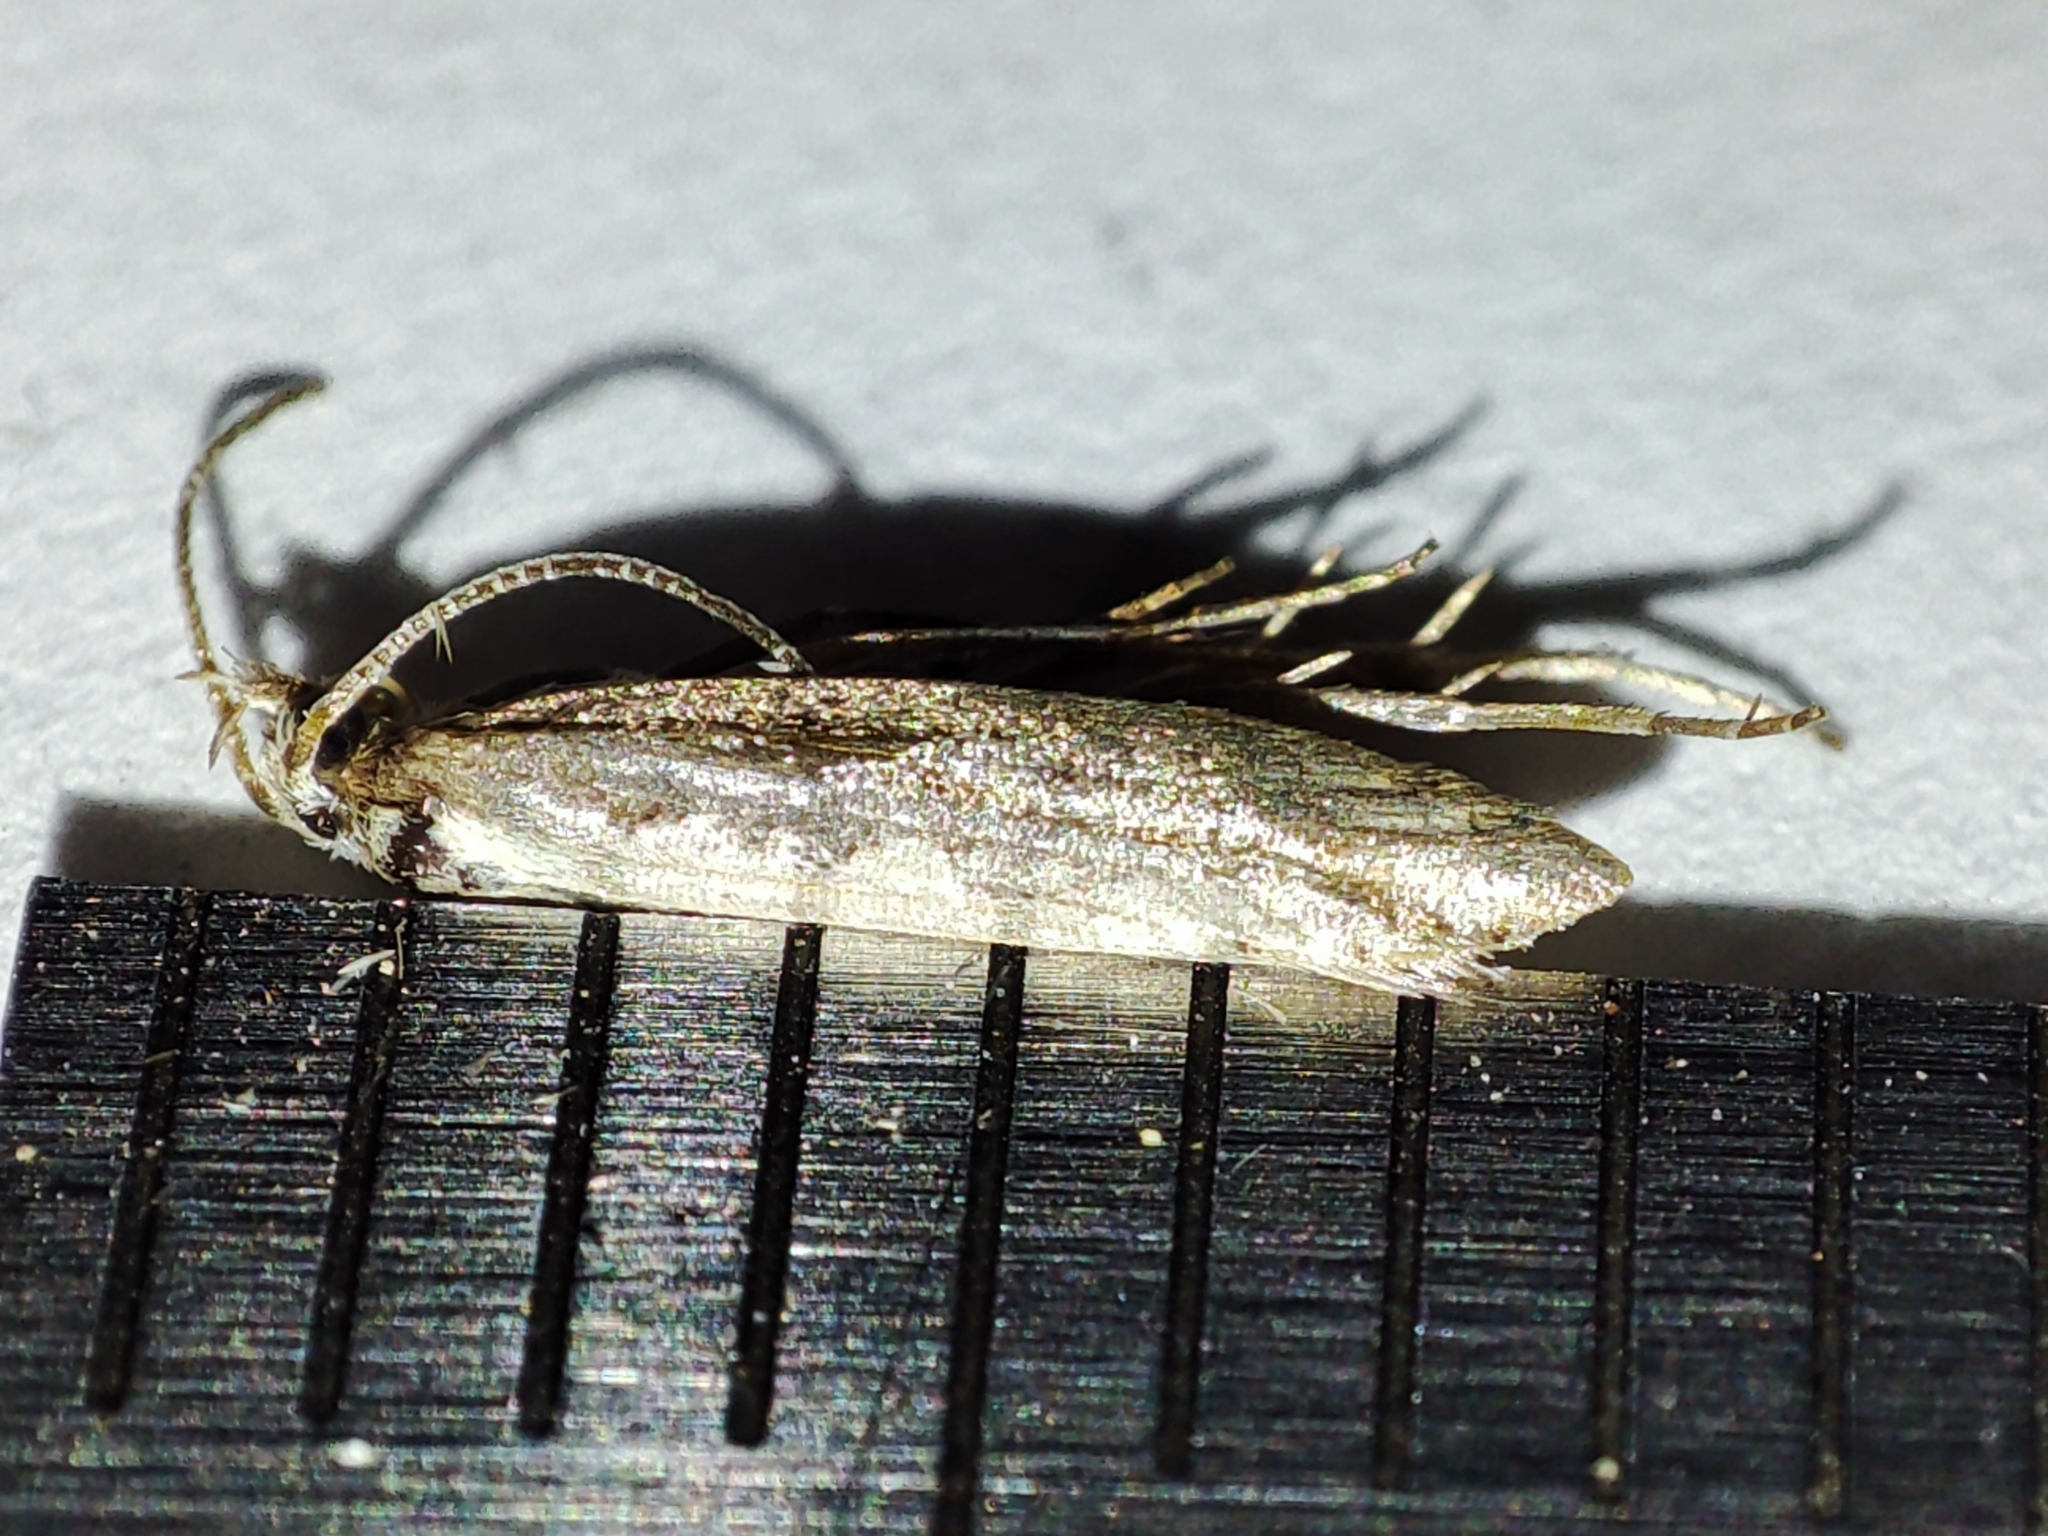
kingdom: Animalia
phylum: Arthropoda
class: Insecta
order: Lepidoptera
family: Plutellidae
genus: Plutella
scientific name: Plutella xylostella
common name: Diamond-back moth
